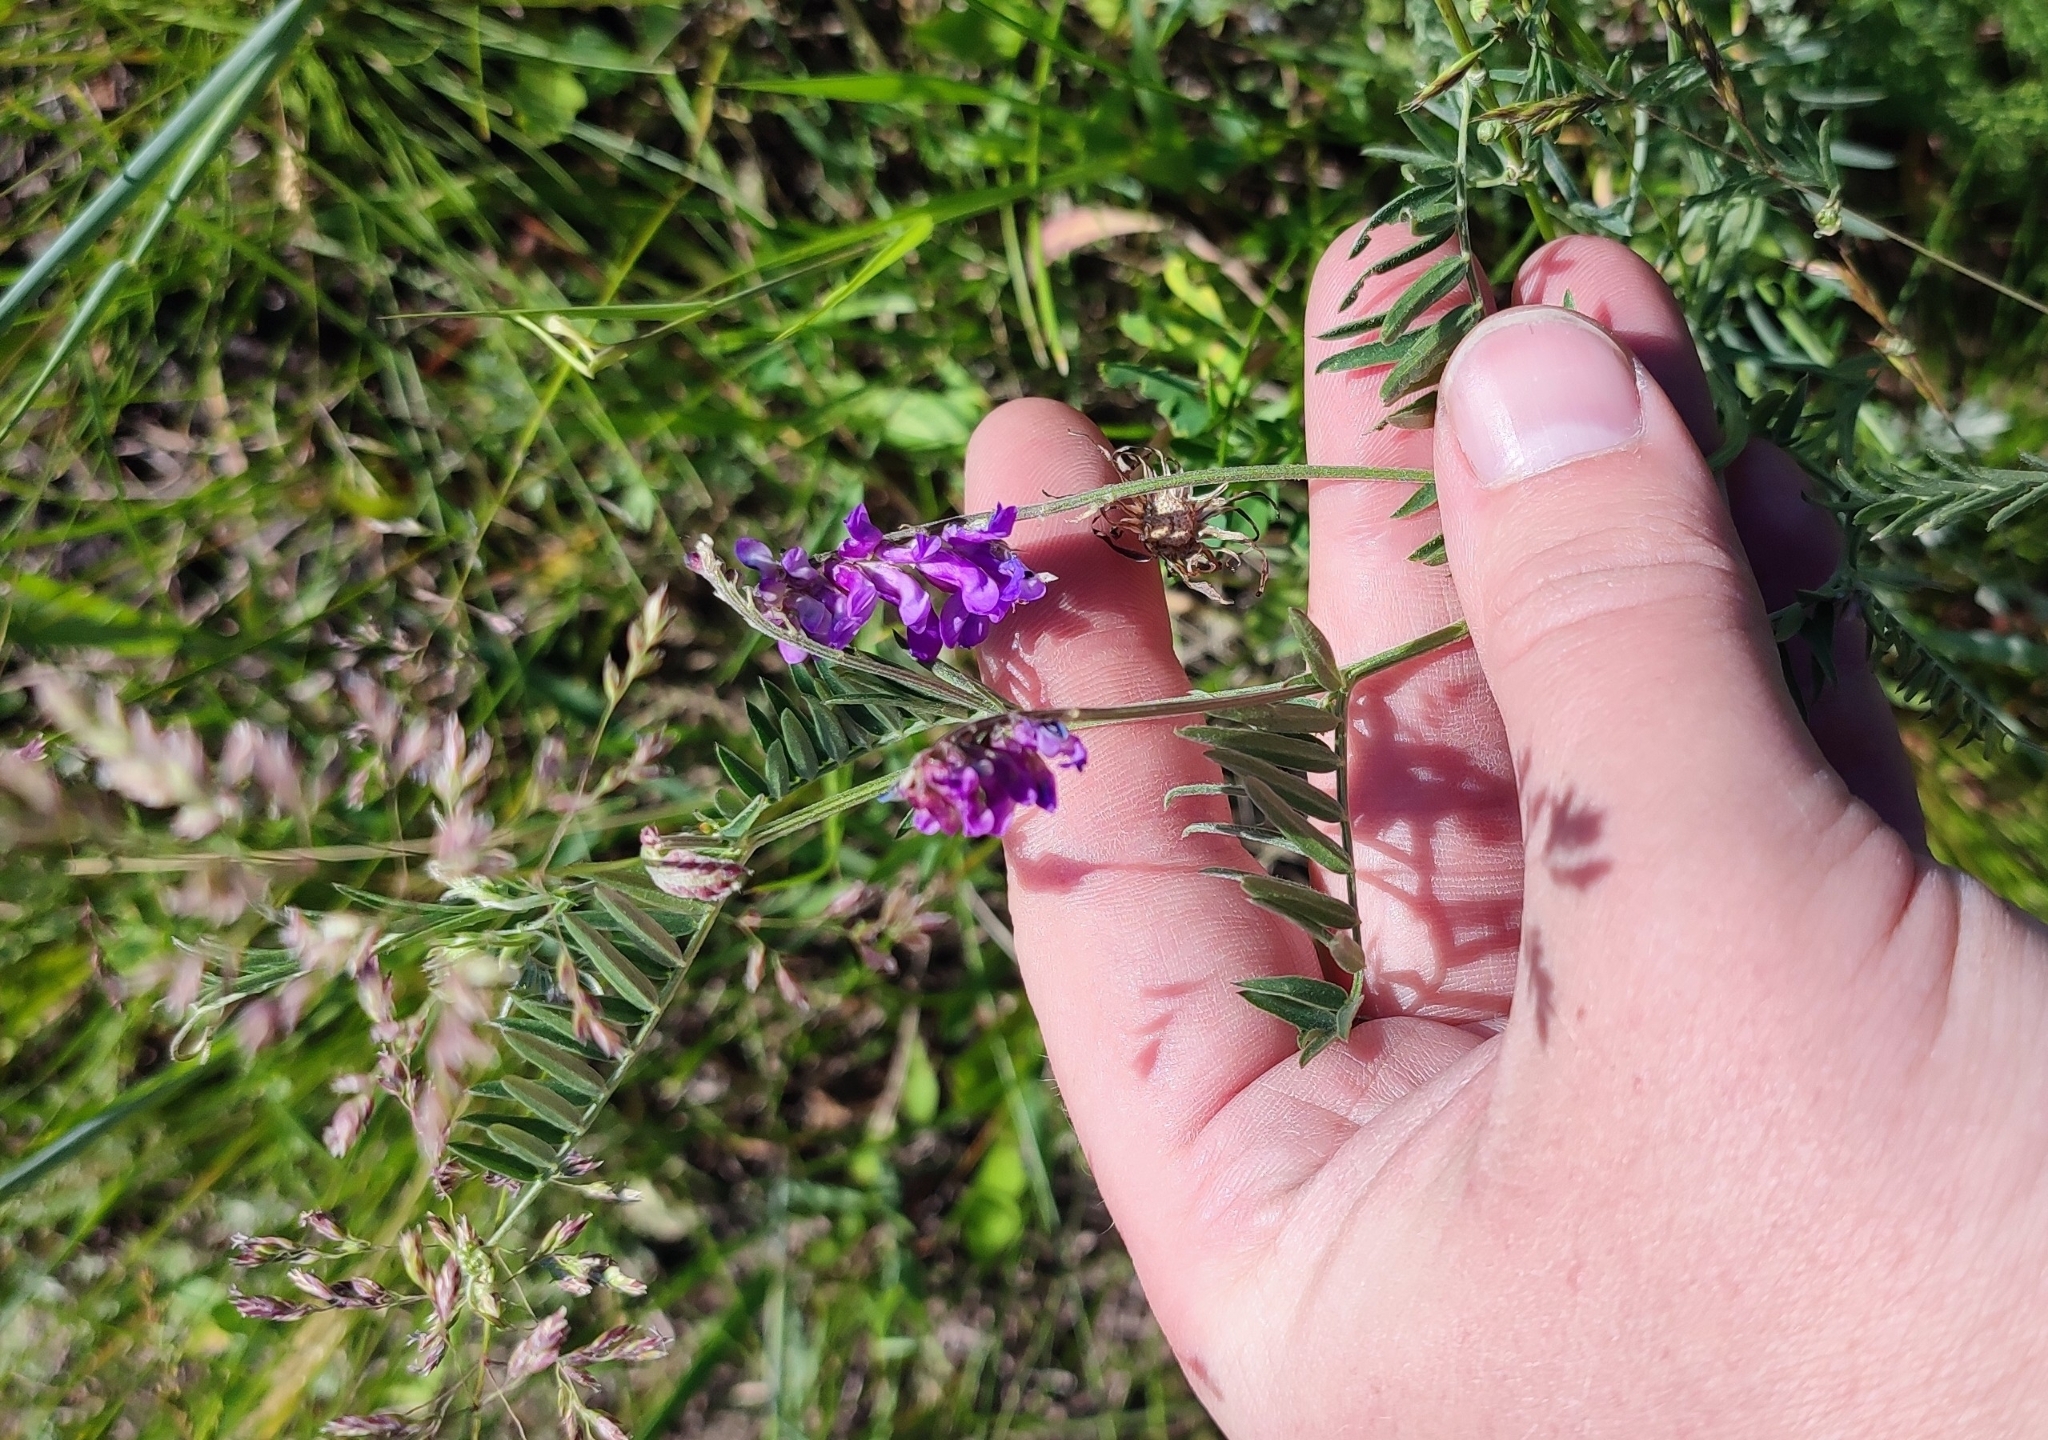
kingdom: Plantae
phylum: Tracheophyta
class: Magnoliopsida
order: Fabales
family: Fabaceae
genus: Vicia
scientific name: Vicia cracca
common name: Bird vetch
